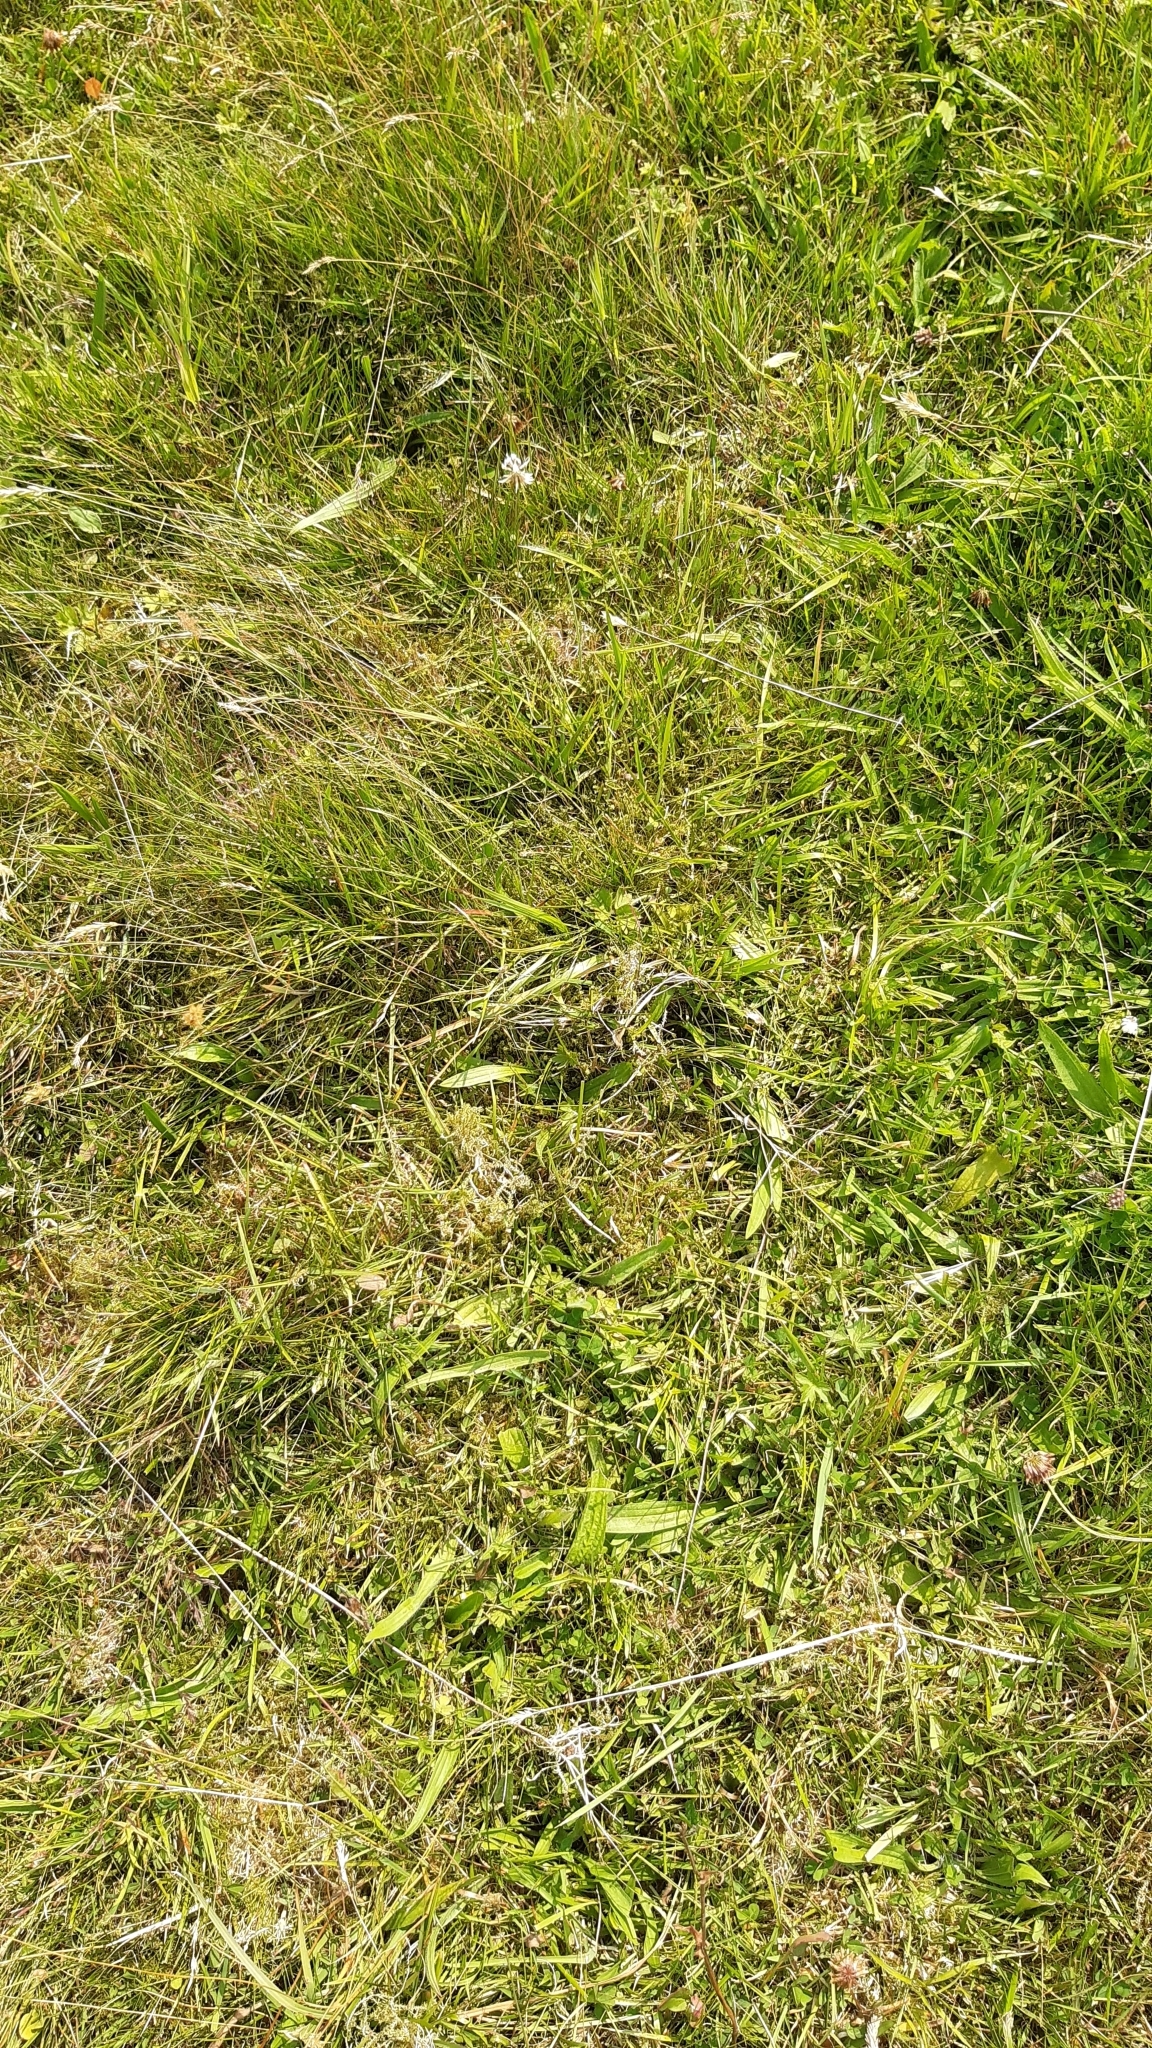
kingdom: Plantae
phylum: Tracheophyta
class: Magnoliopsida
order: Lamiales
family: Plantaginaceae
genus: Plantago
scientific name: Plantago lanceolata
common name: Ribwort plantain
